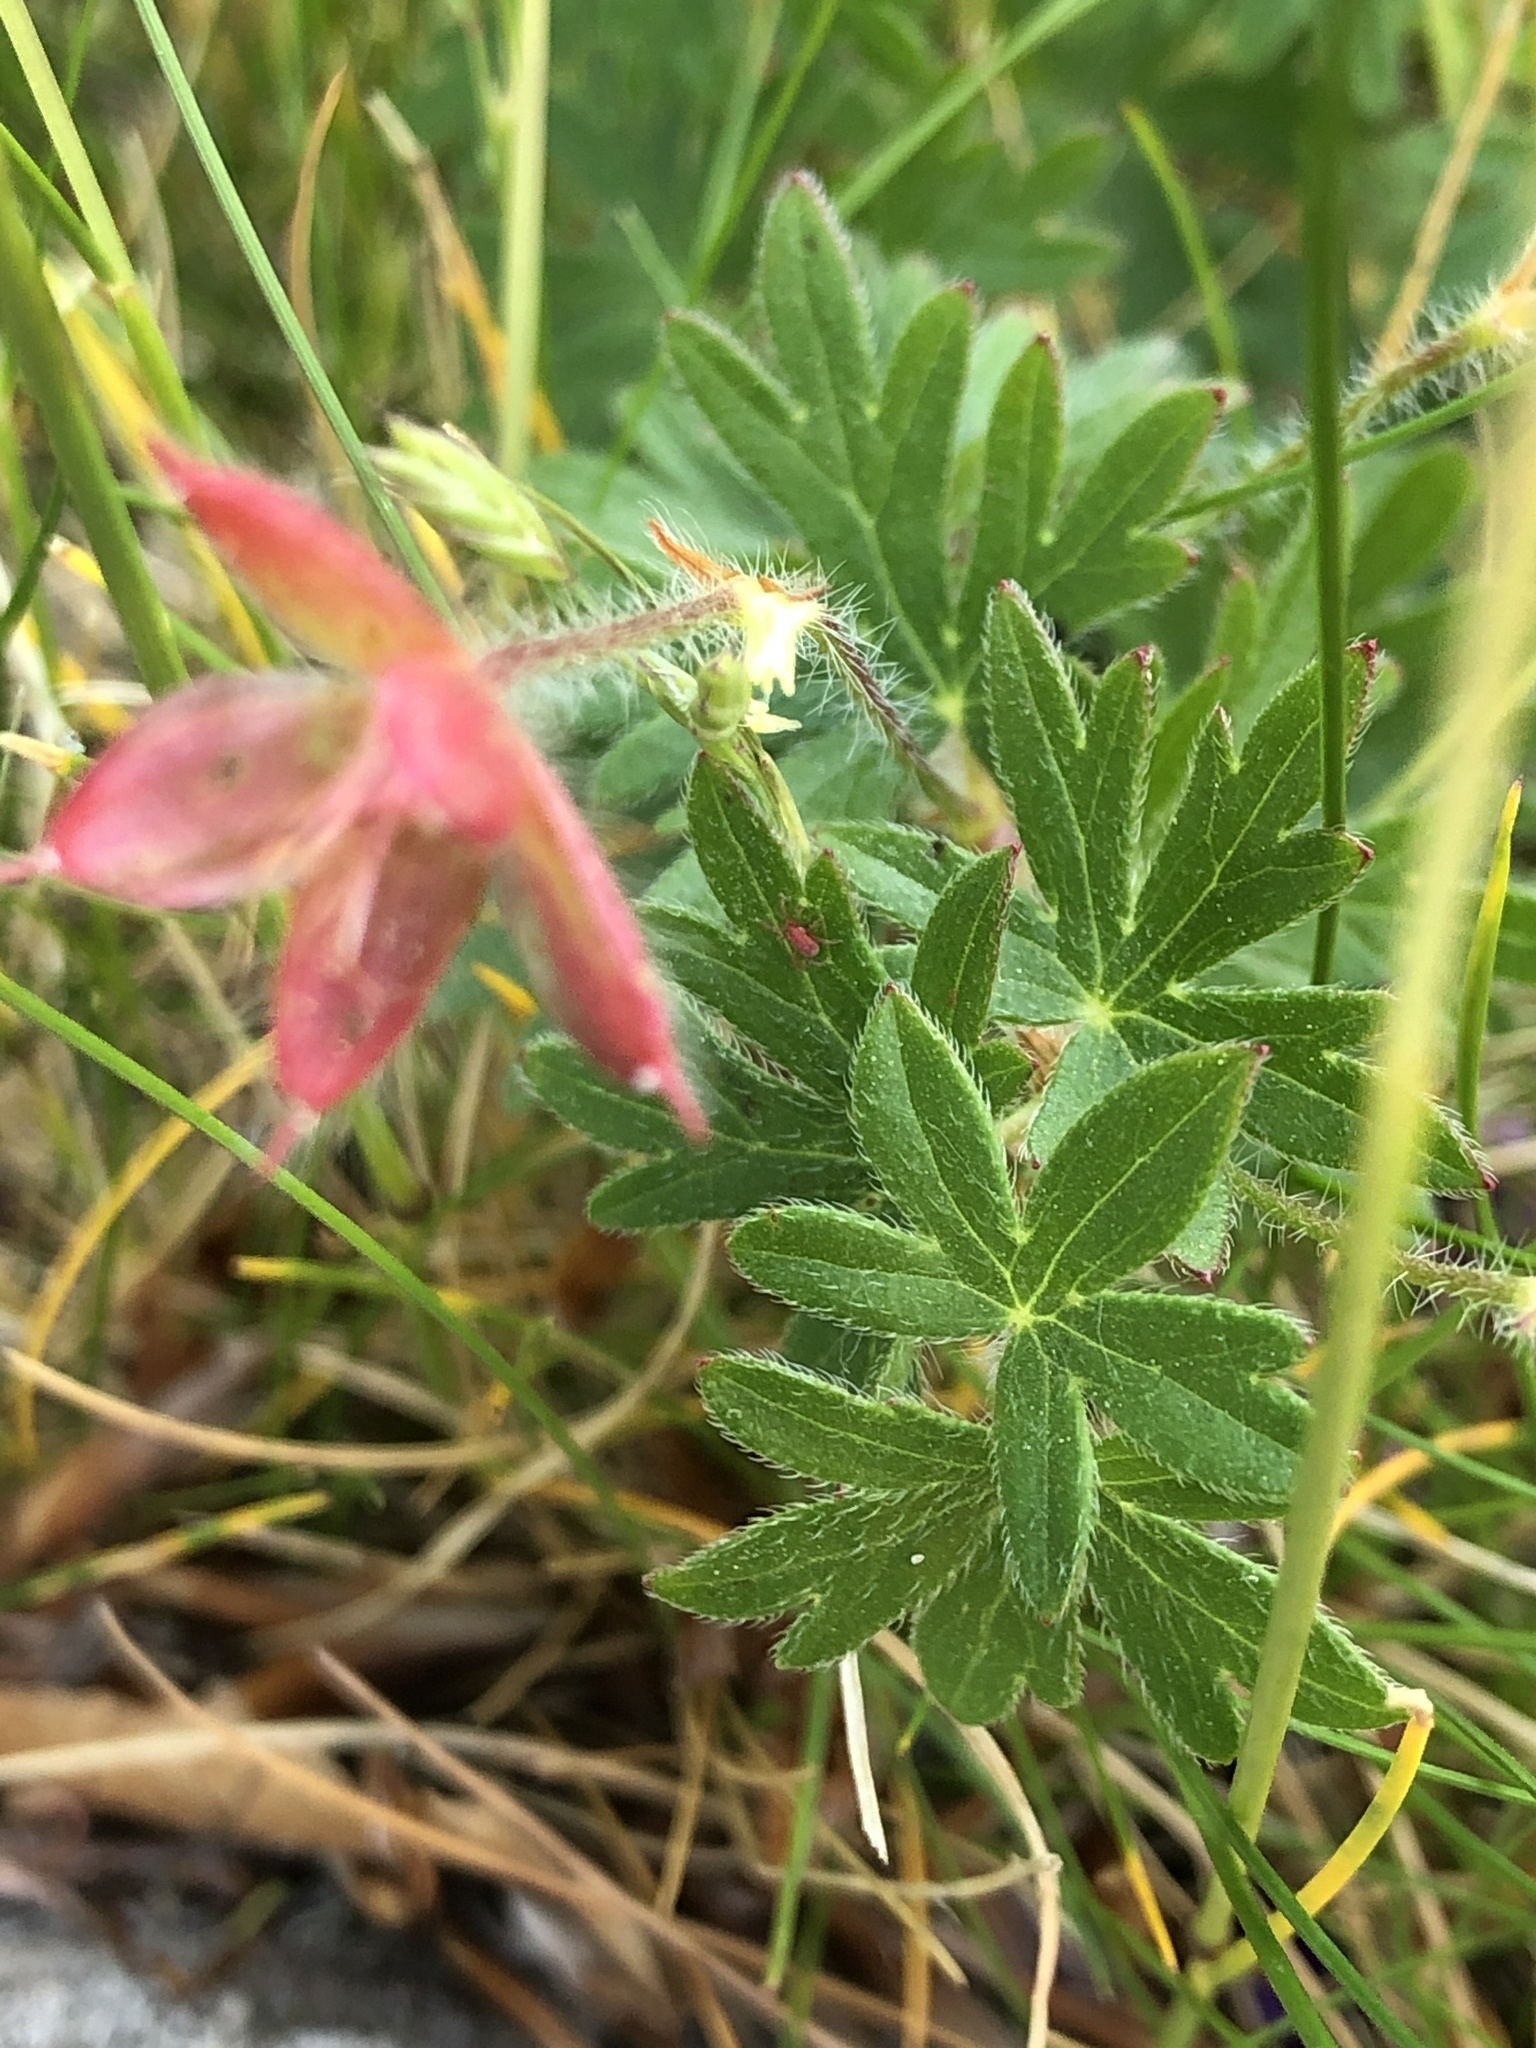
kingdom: Plantae
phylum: Tracheophyta
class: Magnoliopsida
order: Geraniales
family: Geraniaceae
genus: Geranium
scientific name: Geranium sanguineum
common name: Bloody crane's-bill
